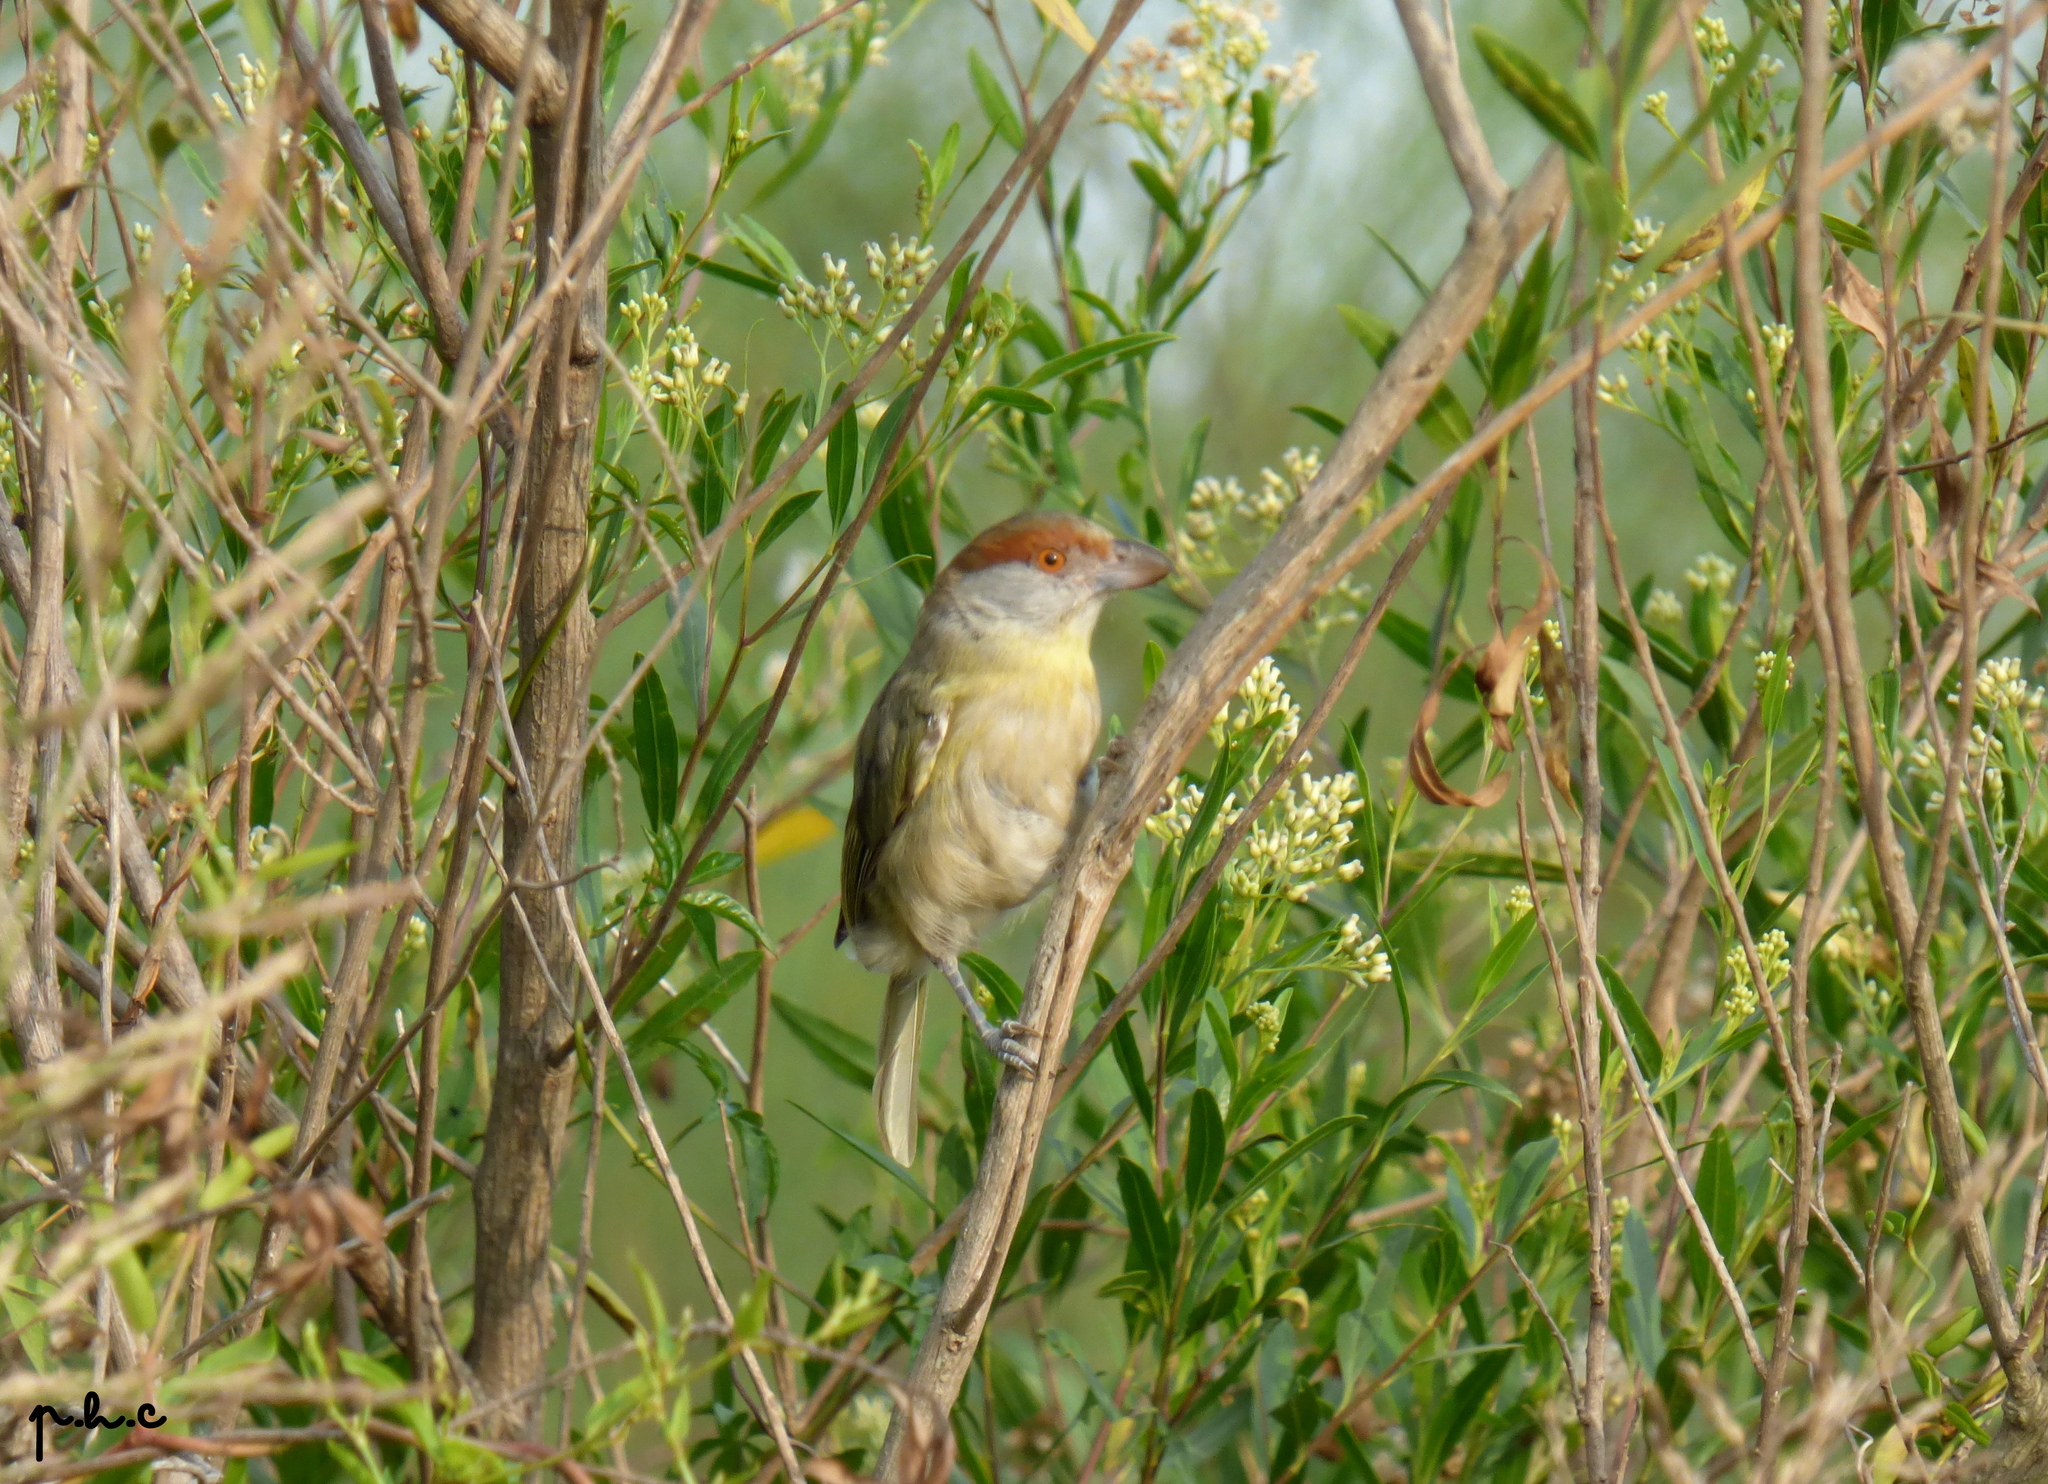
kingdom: Animalia
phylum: Chordata
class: Aves
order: Passeriformes
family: Vireonidae
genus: Cyclarhis
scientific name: Cyclarhis gujanensis
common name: Rufous-browed peppershrike
